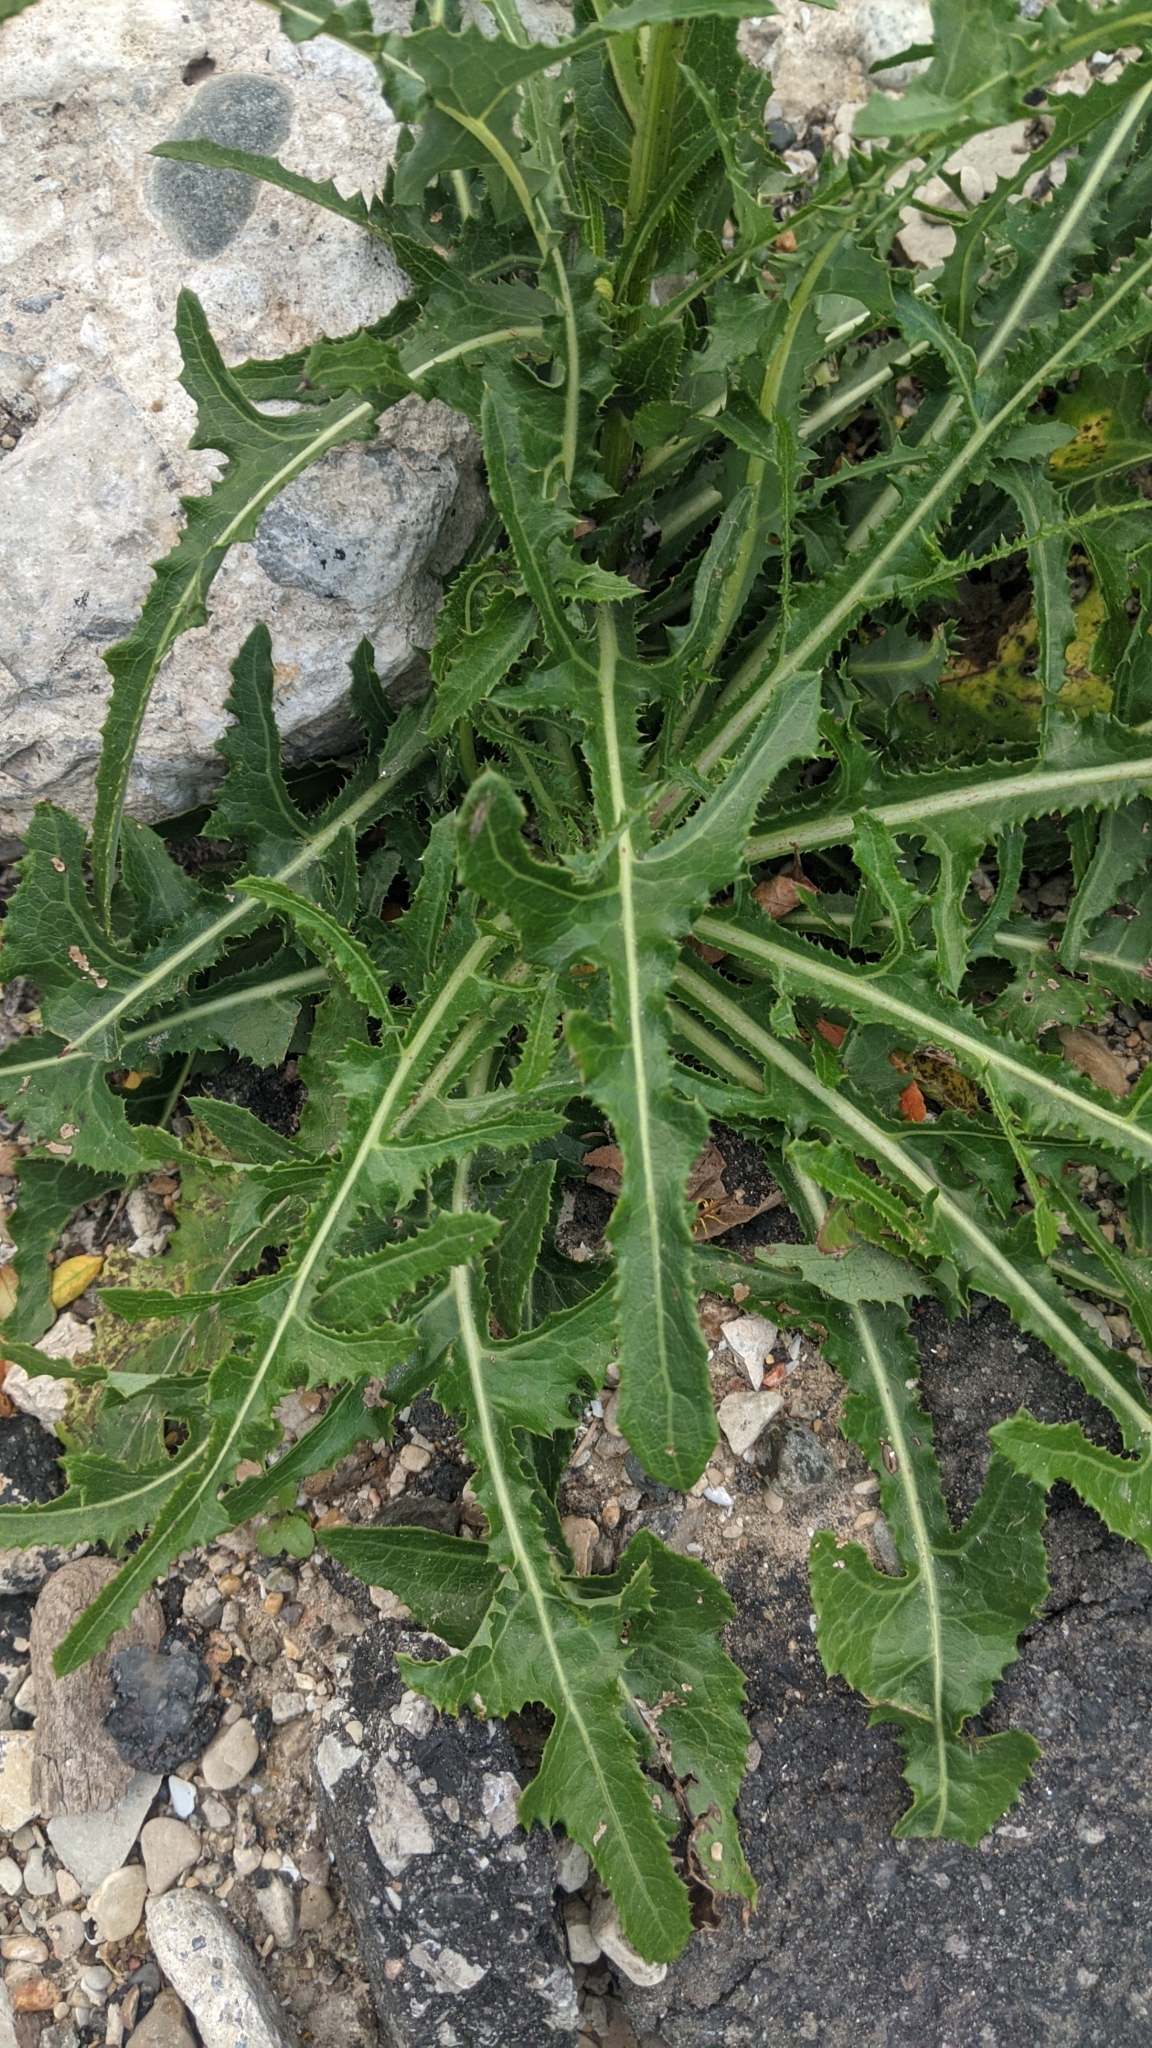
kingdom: Plantae
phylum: Tracheophyta
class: Magnoliopsida
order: Asterales
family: Asteraceae
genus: Sonchus
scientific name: Sonchus arvensis
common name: Perennial sow-thistle
